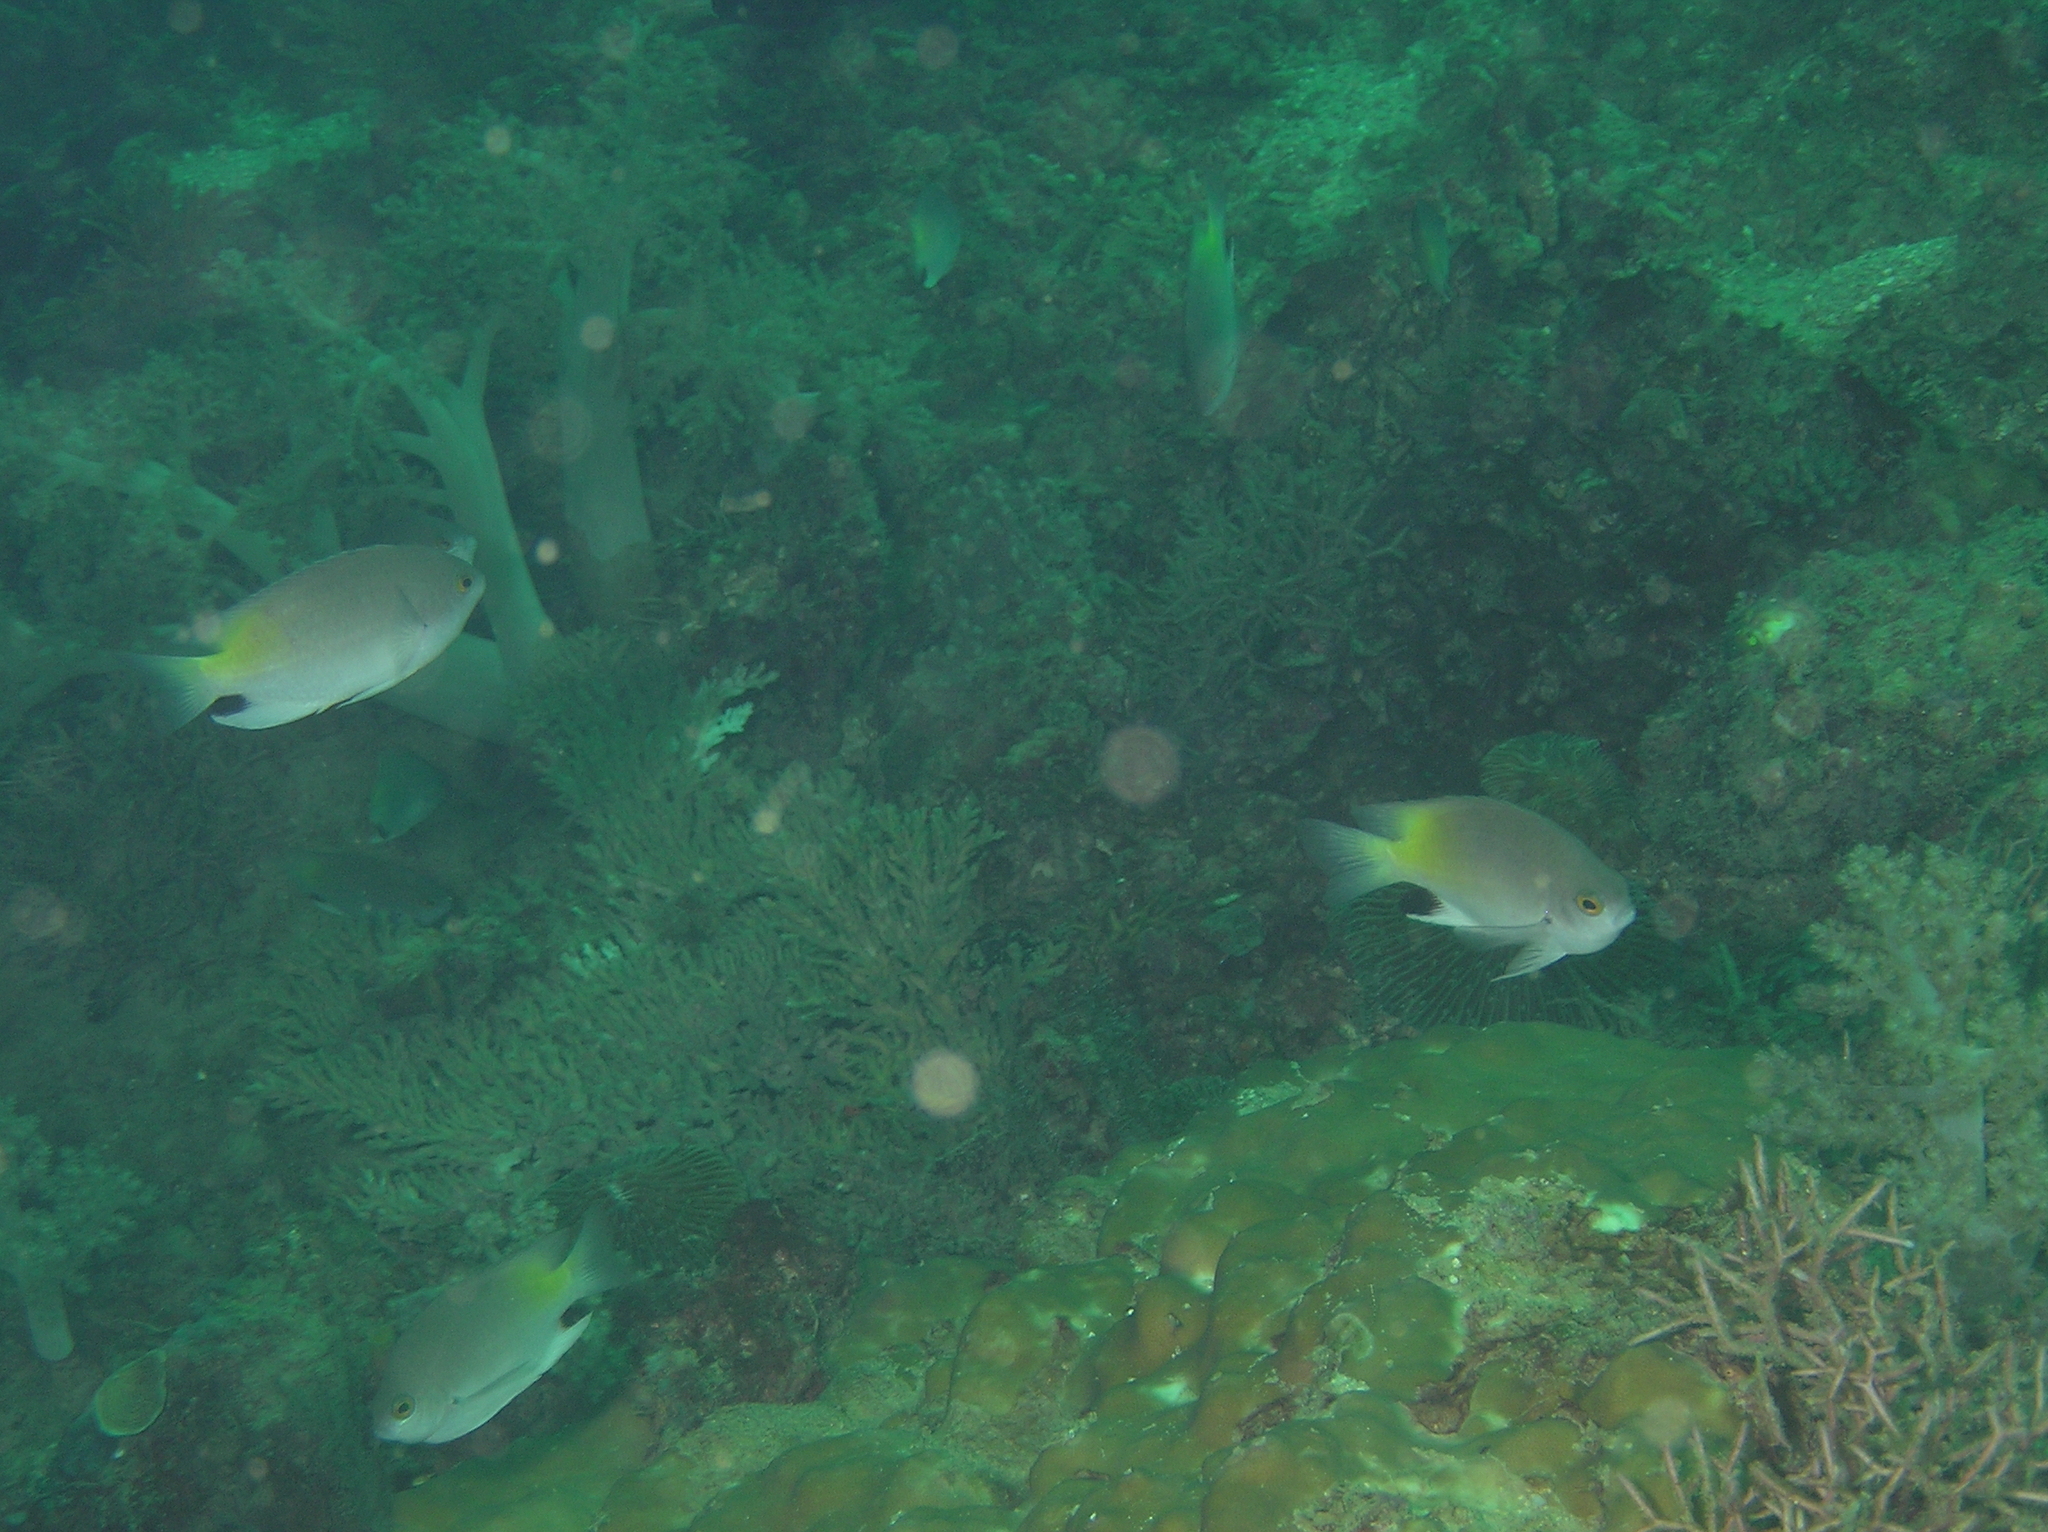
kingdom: Animalia
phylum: Chordata
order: Perciformes
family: Pomacentridae
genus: Pomacentrus
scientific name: Pomacentrus stigma
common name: Blackspot damsel
